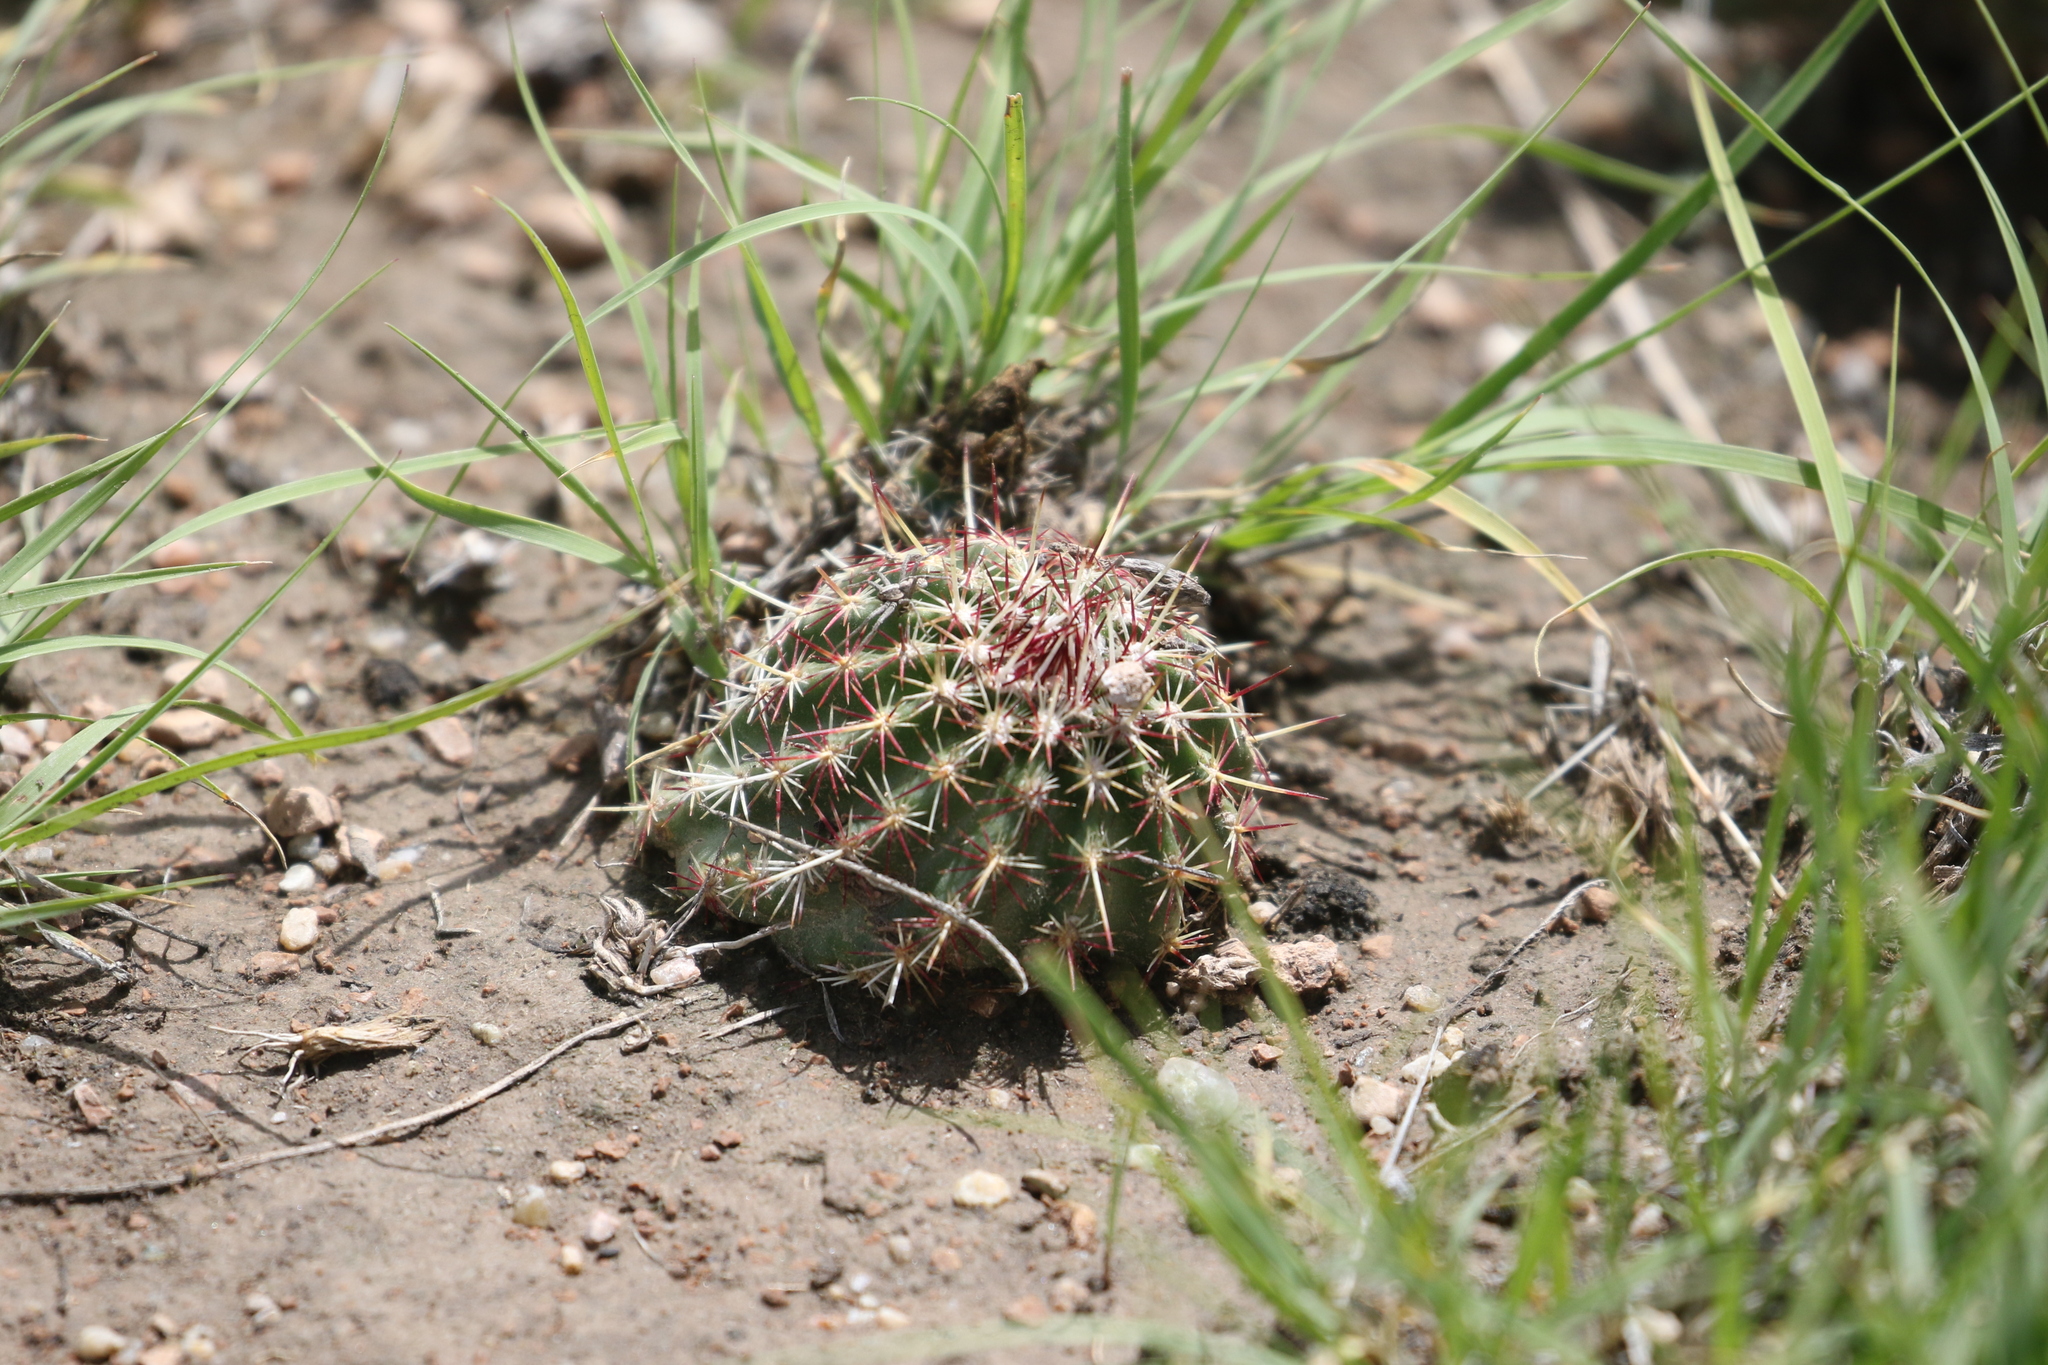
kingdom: Plantae
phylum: Tracheophyta
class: Magnoliopsida
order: Caryophyllales
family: Cactaceae
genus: Echinocereus
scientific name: Echinocereus viridiflorus
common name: Nylon hedgehog cactus
